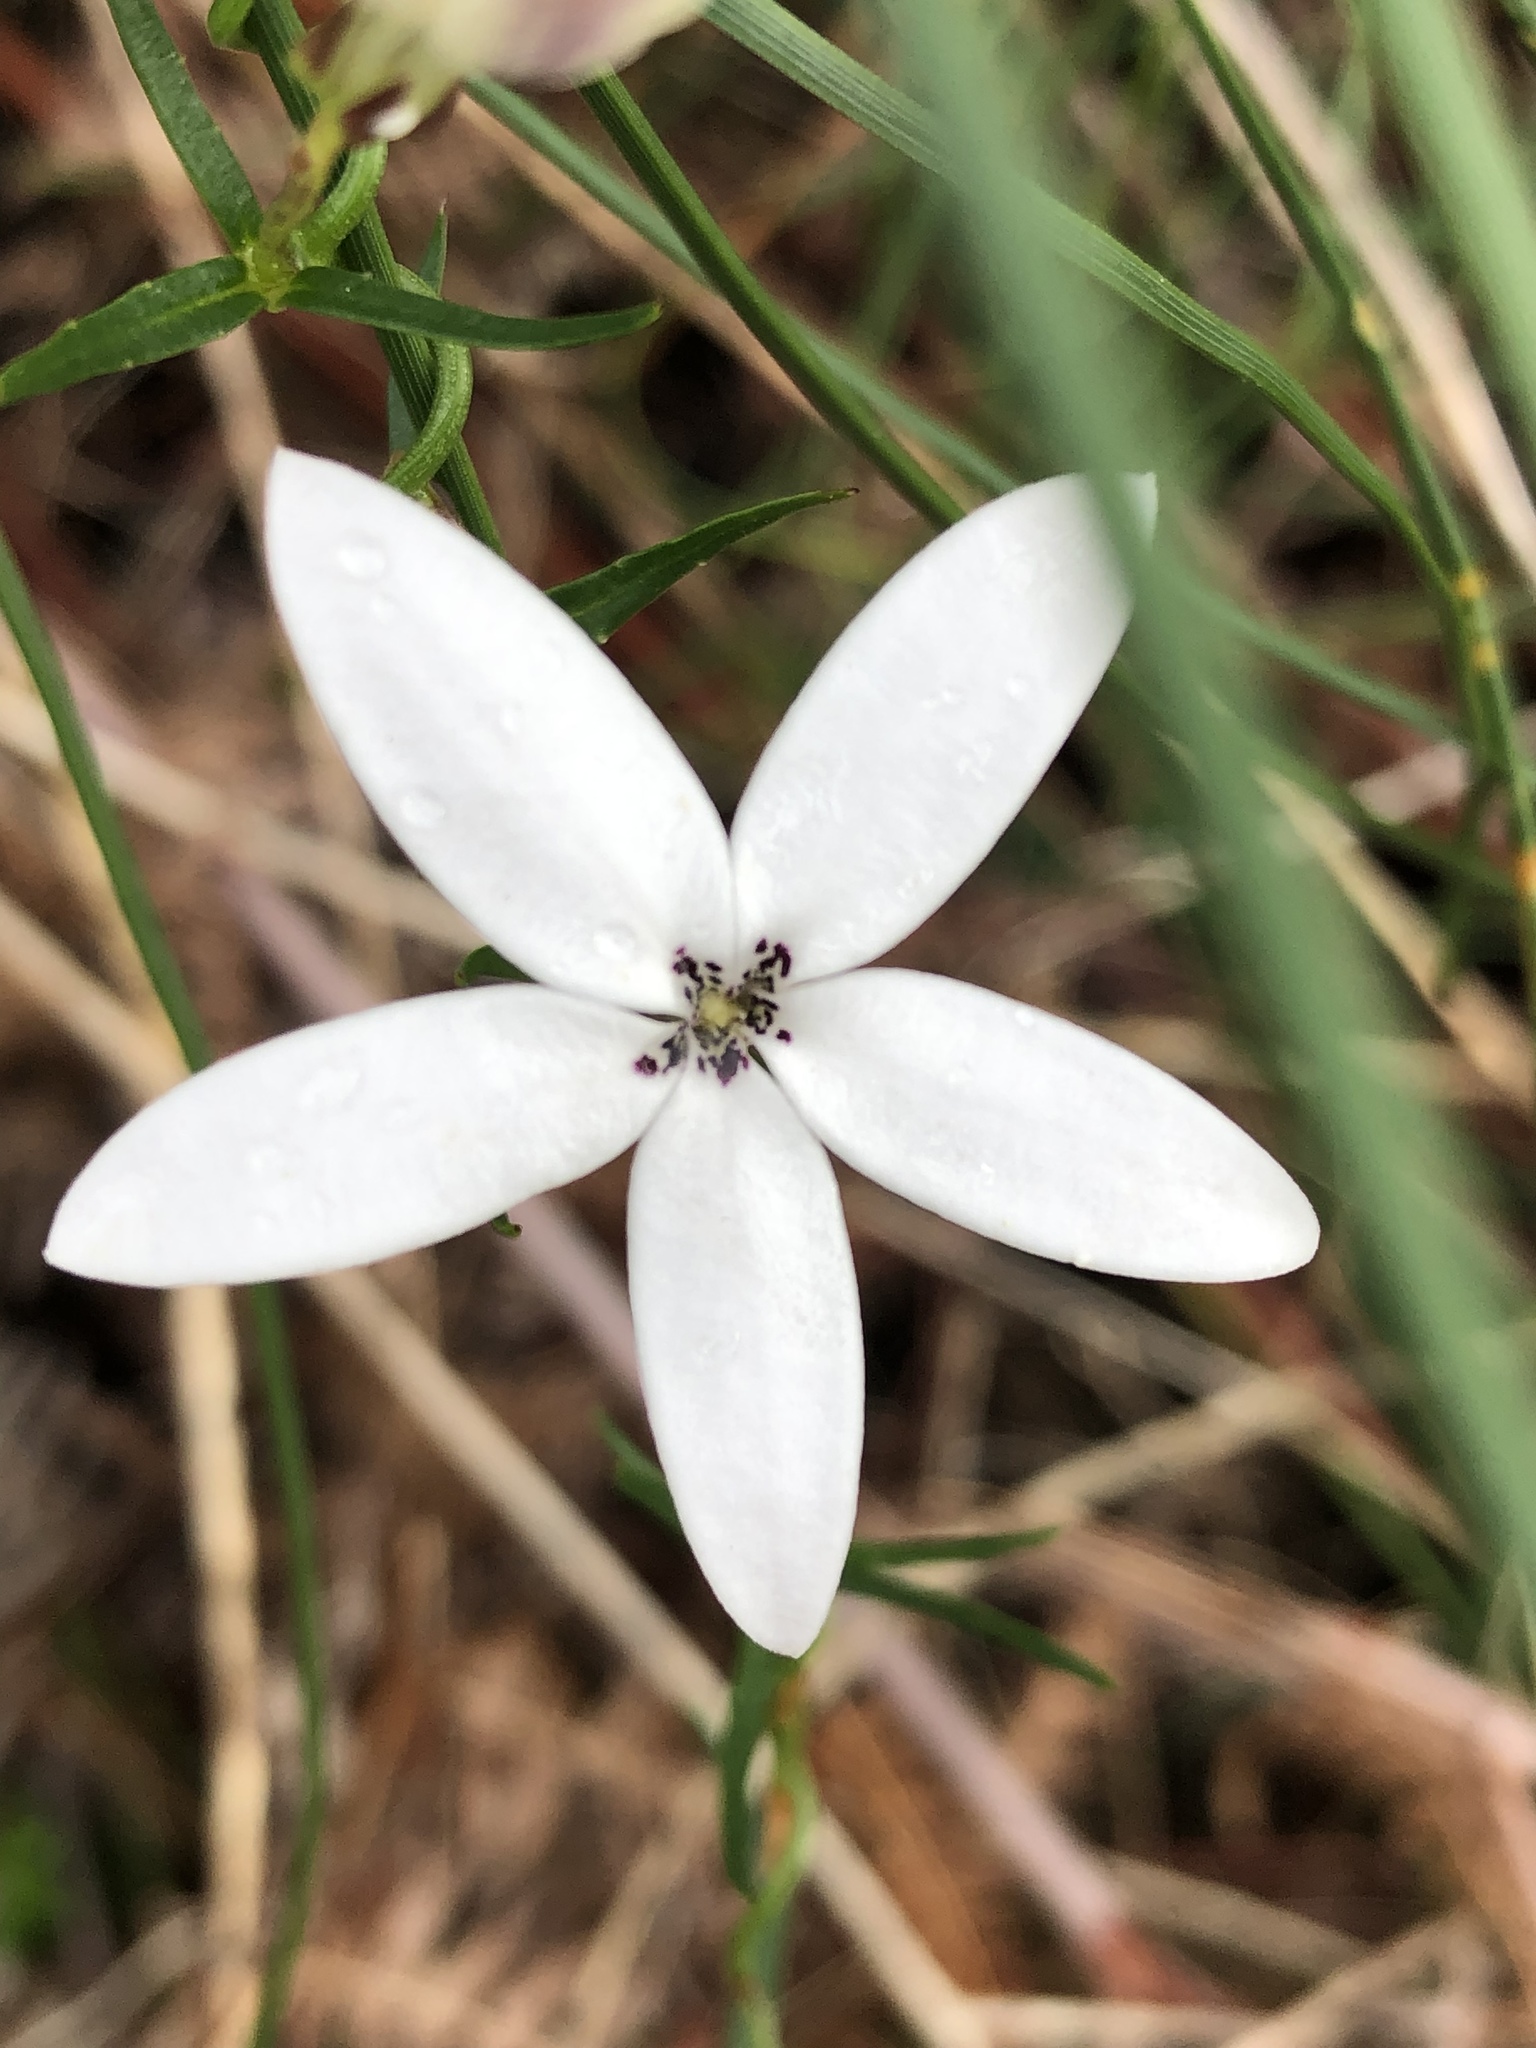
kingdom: Plantae
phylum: Tracheophyta
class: Magnoliopsida
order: Asterales
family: Campanulaceae
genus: Cyphia
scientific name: Cyphia volubilis
